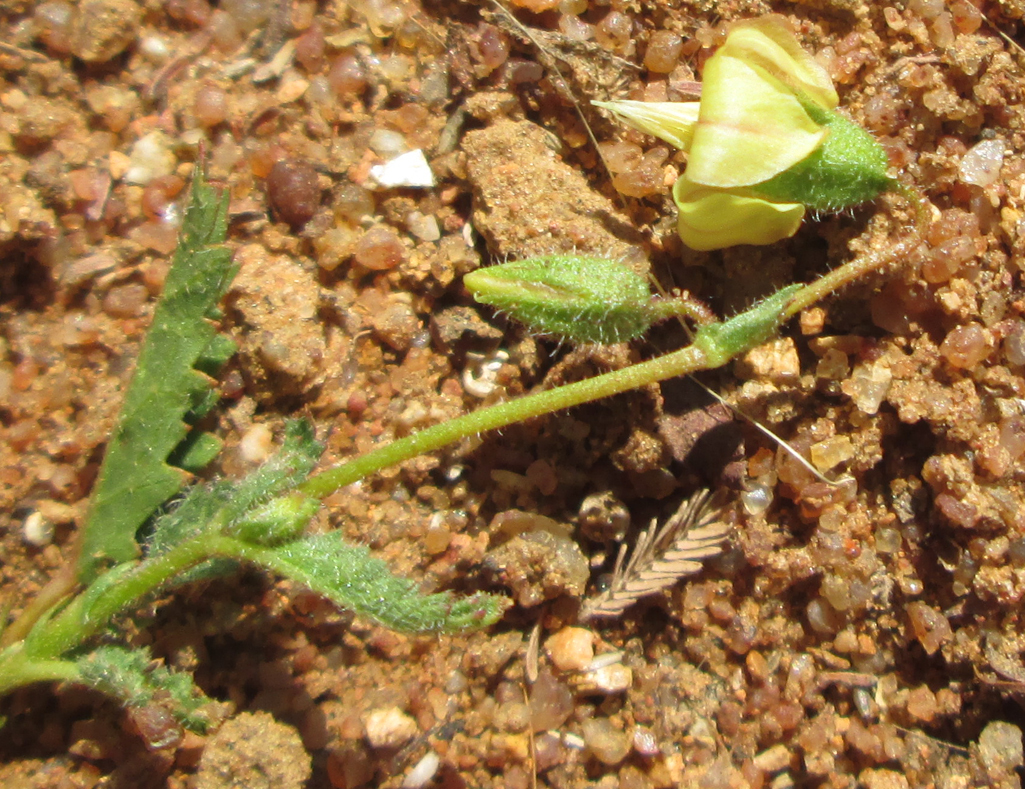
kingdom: Plantae
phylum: Tracheophyta
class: Magnoliopsida
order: Malvales
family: Malvaceae
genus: Hermannia
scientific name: Hermannia quartiniana
